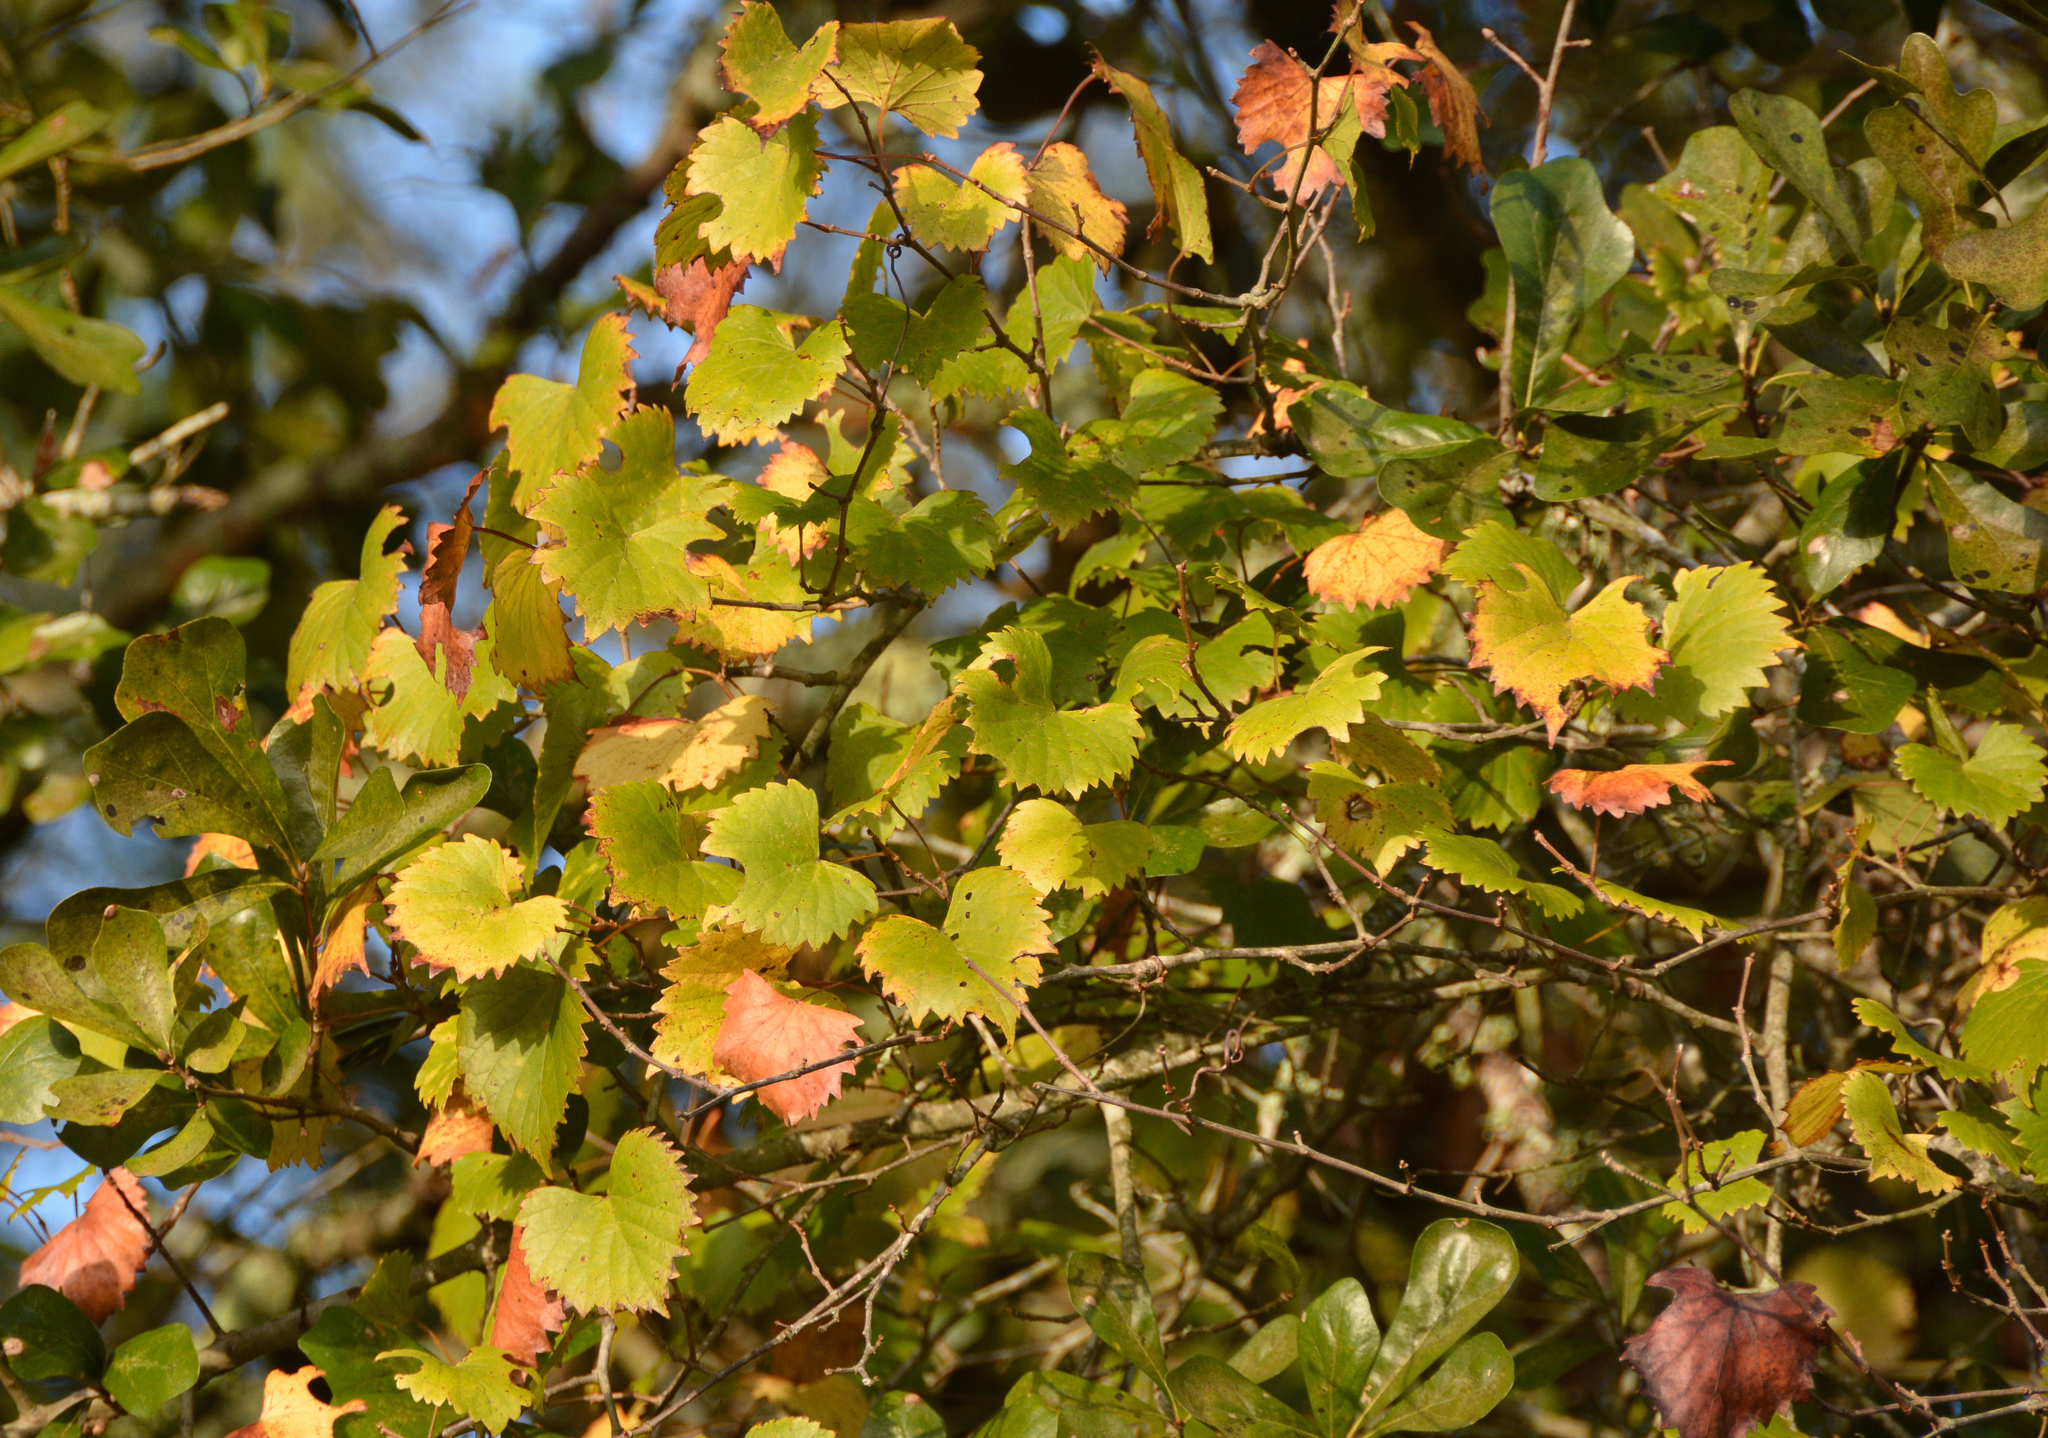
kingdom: Plantae
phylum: Tracheophyta
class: Magnoliopsida
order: Vitales
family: Vitaceae
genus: Vitis
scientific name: Vitis rotundifolia
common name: Muscadine grape
